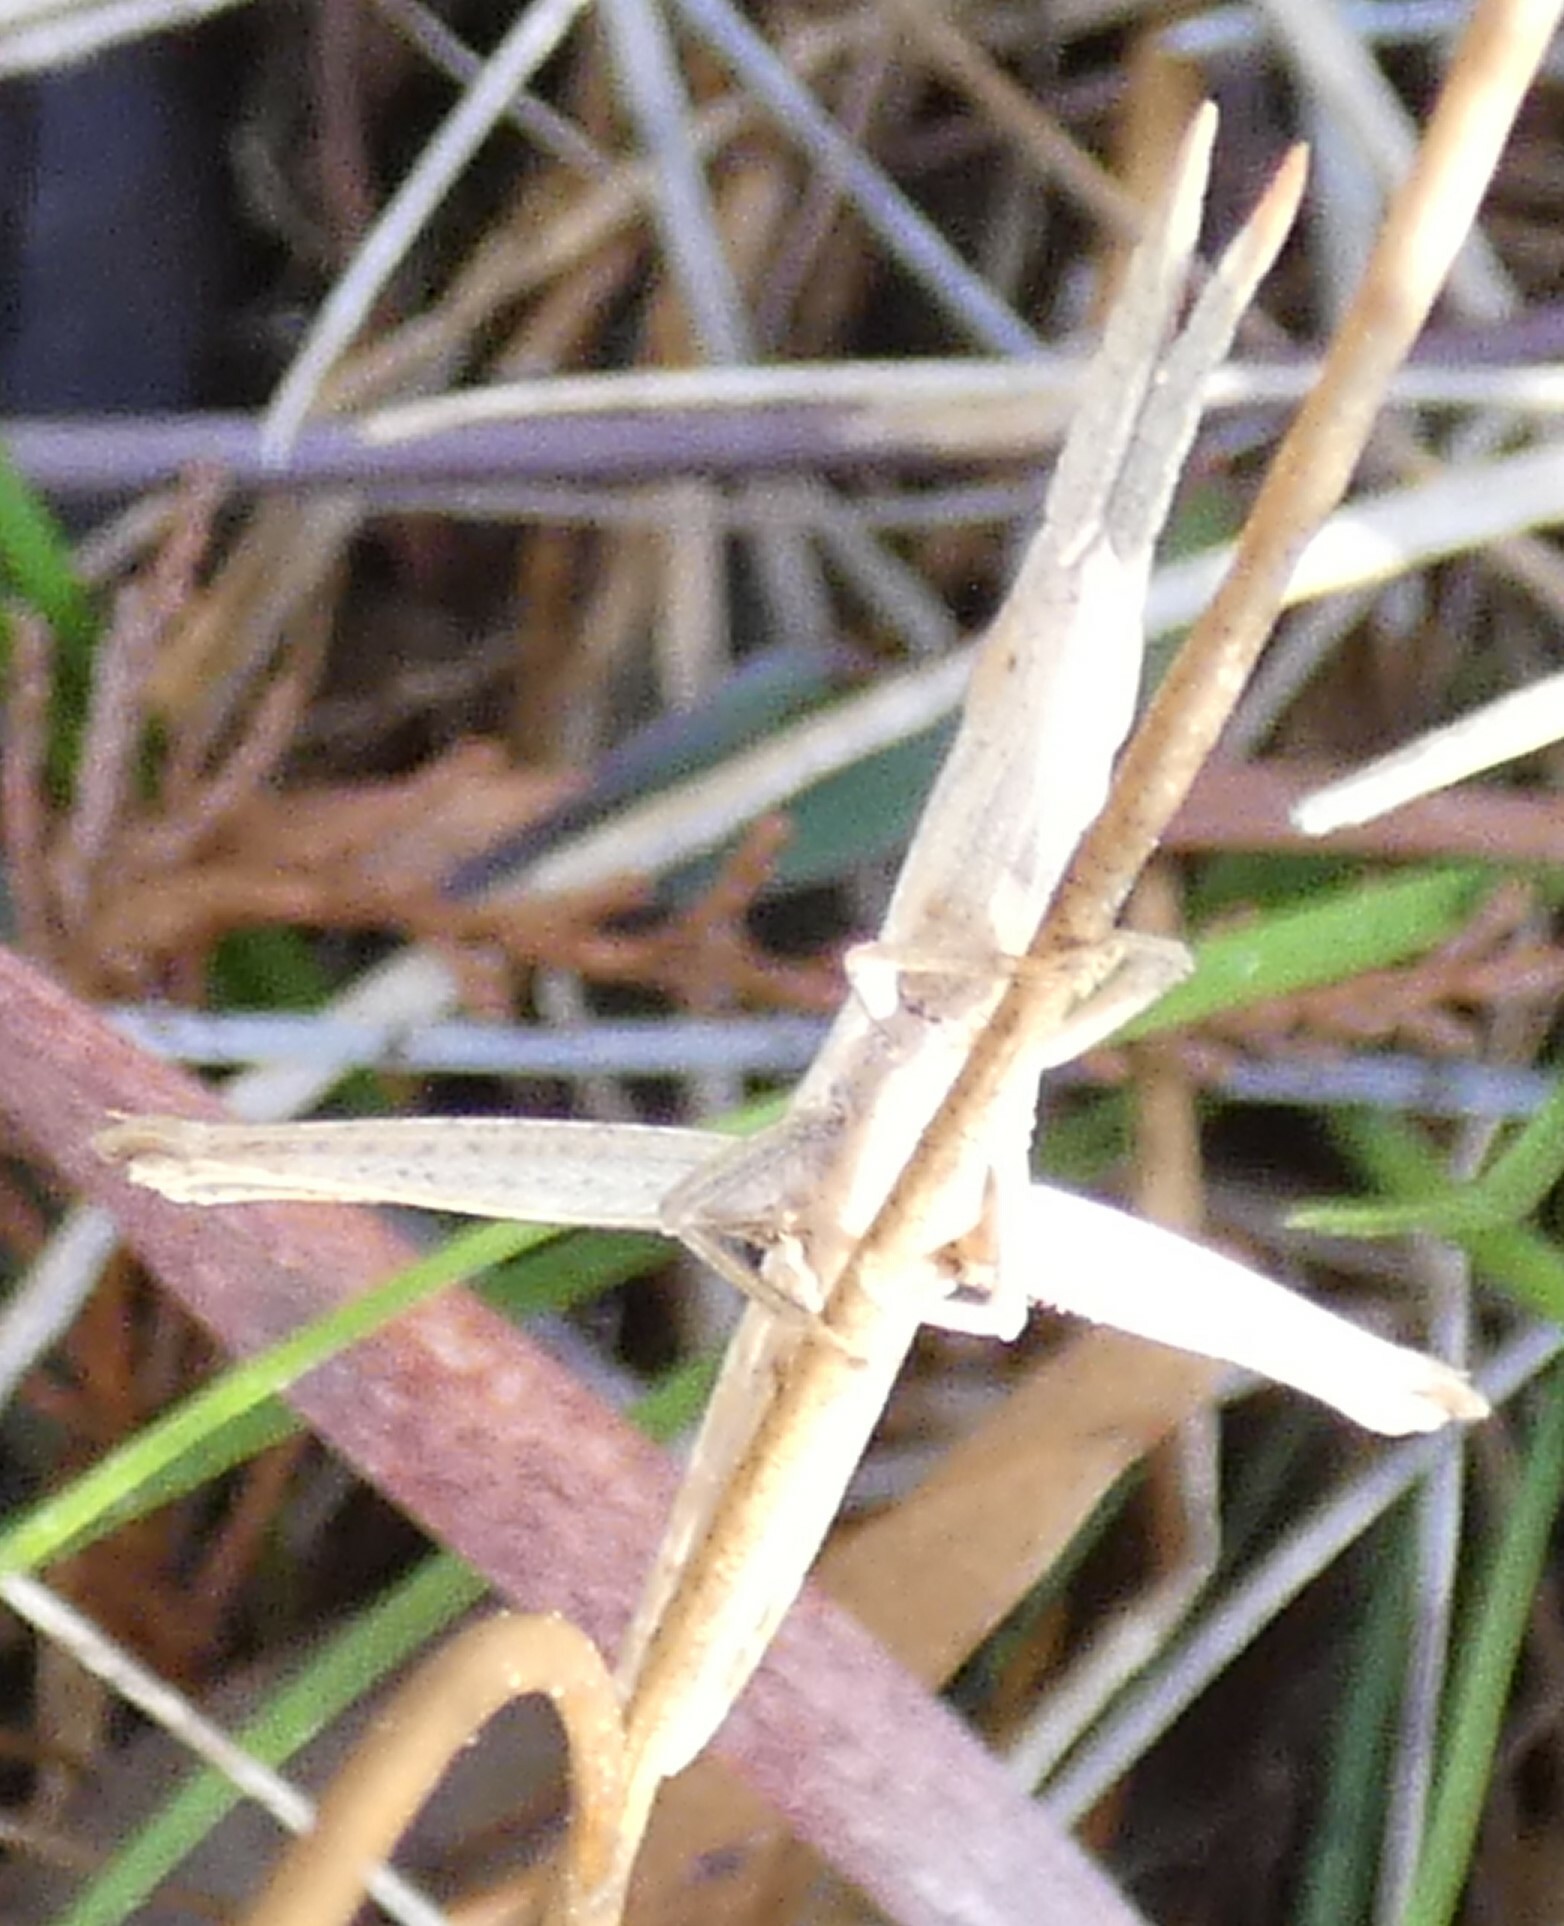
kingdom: Animalia
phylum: Arthropoda
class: Insecta
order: Orthoptera
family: Acrididae
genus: Achurum
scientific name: Achurum carinatum
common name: Long-headed toothpick grasshopper
